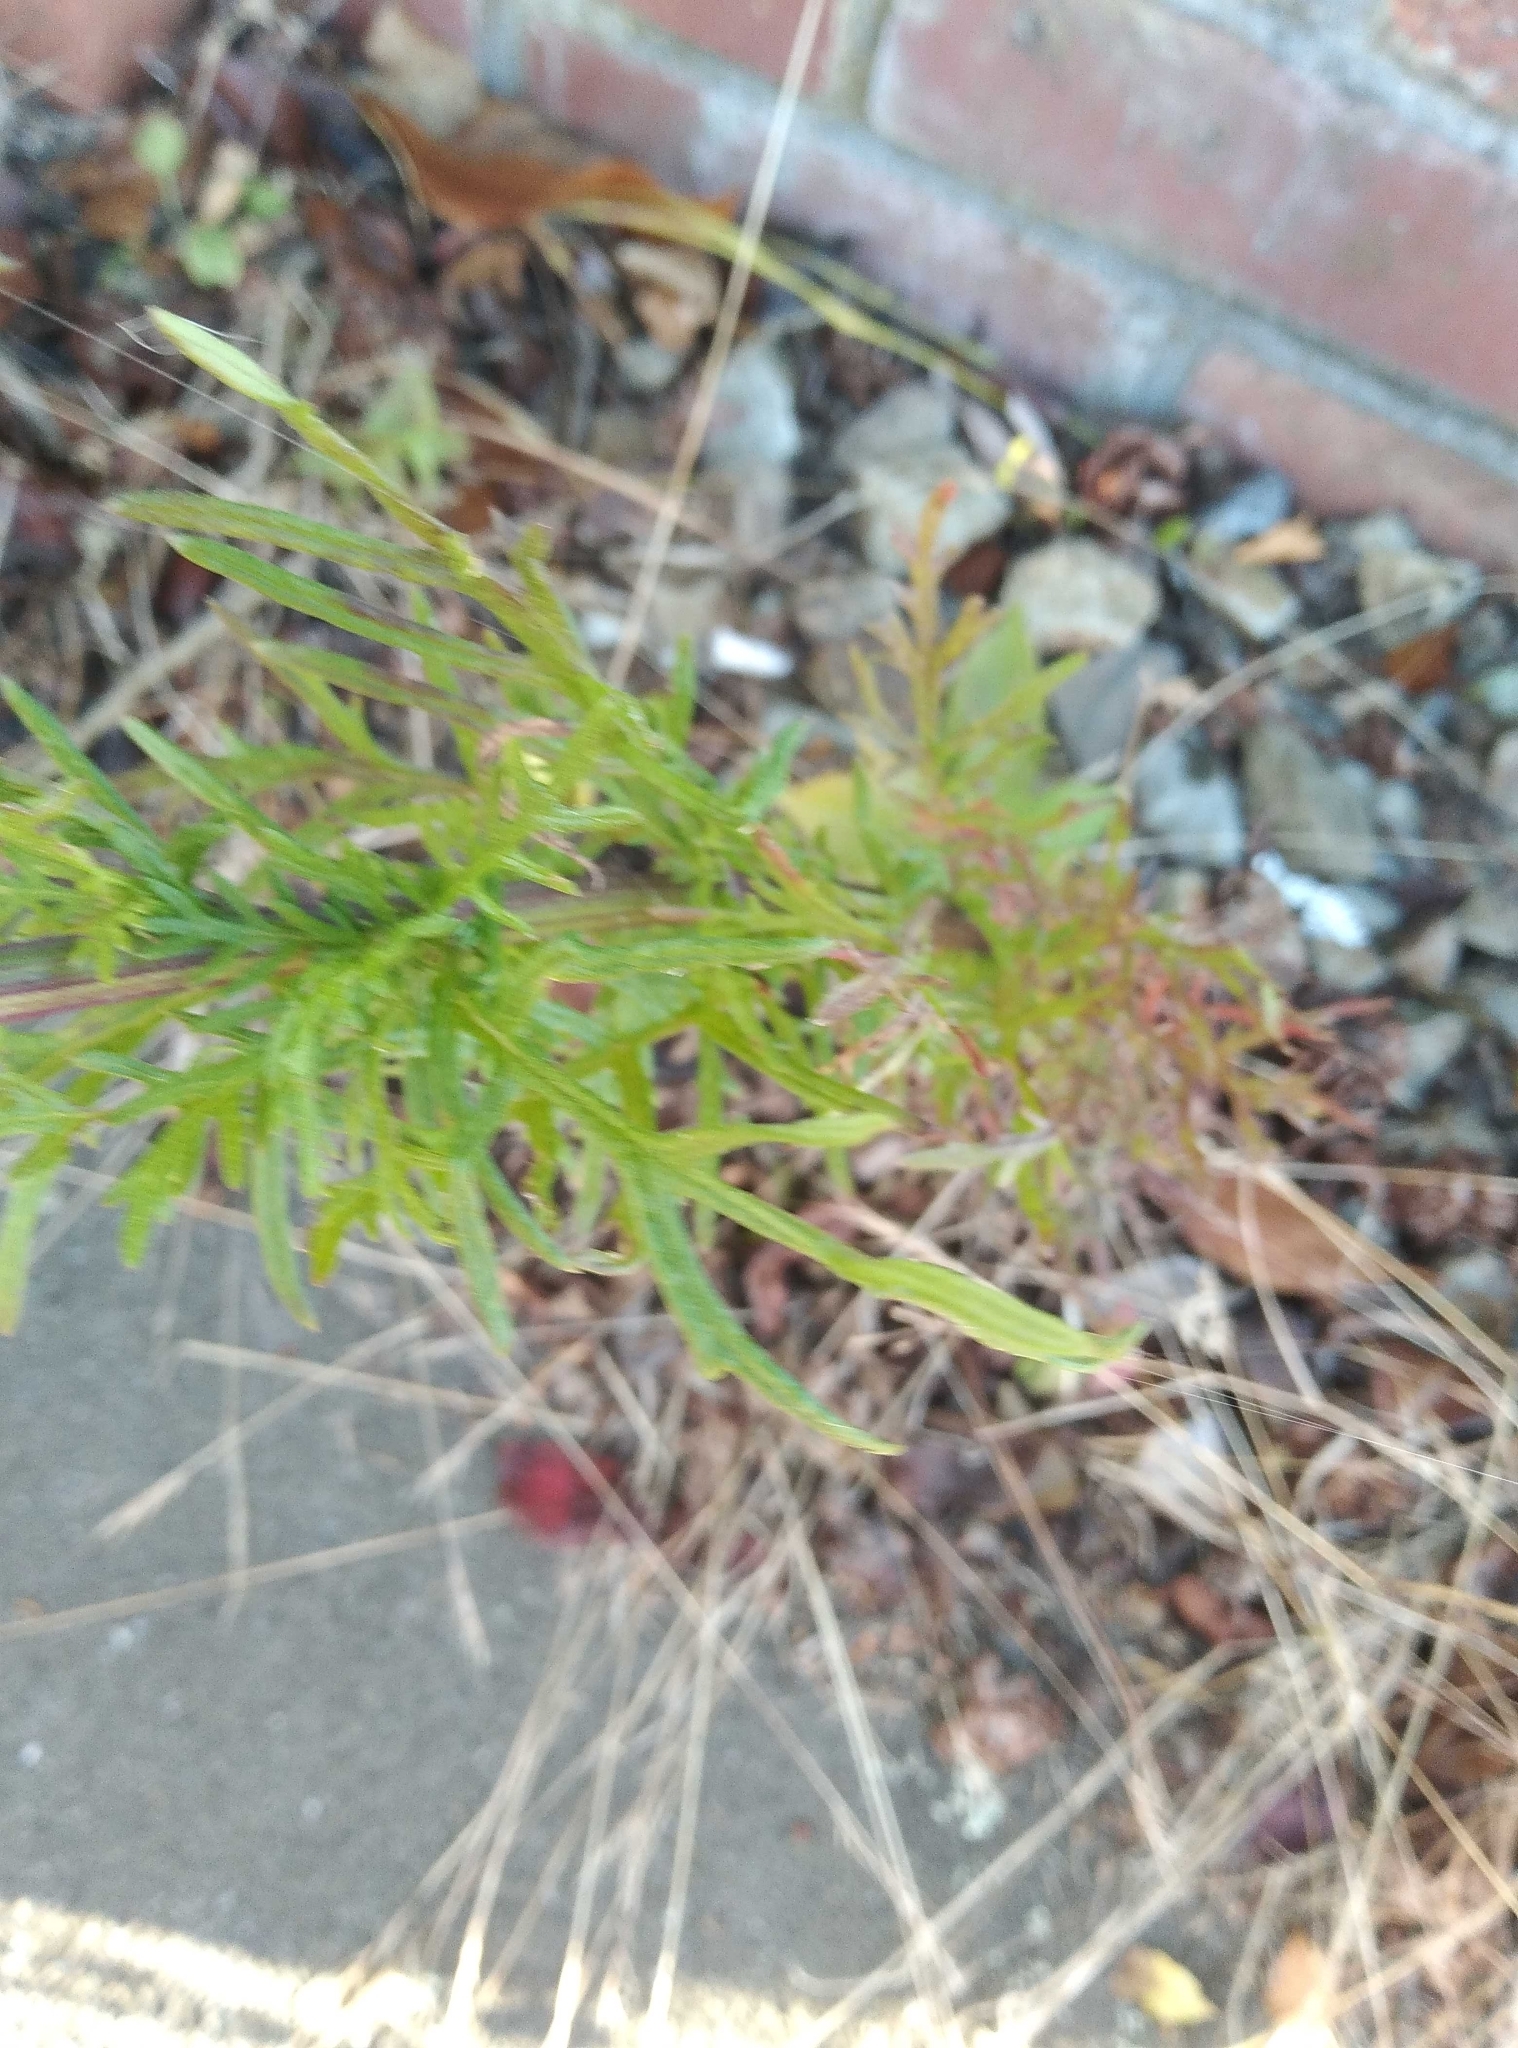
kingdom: Plantae
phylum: Tracheophyta
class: Magnoliopsida
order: Asterales
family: Asteraceae
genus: Senecio
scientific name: Senecio bipinnatisectus
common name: Australian fireweed
